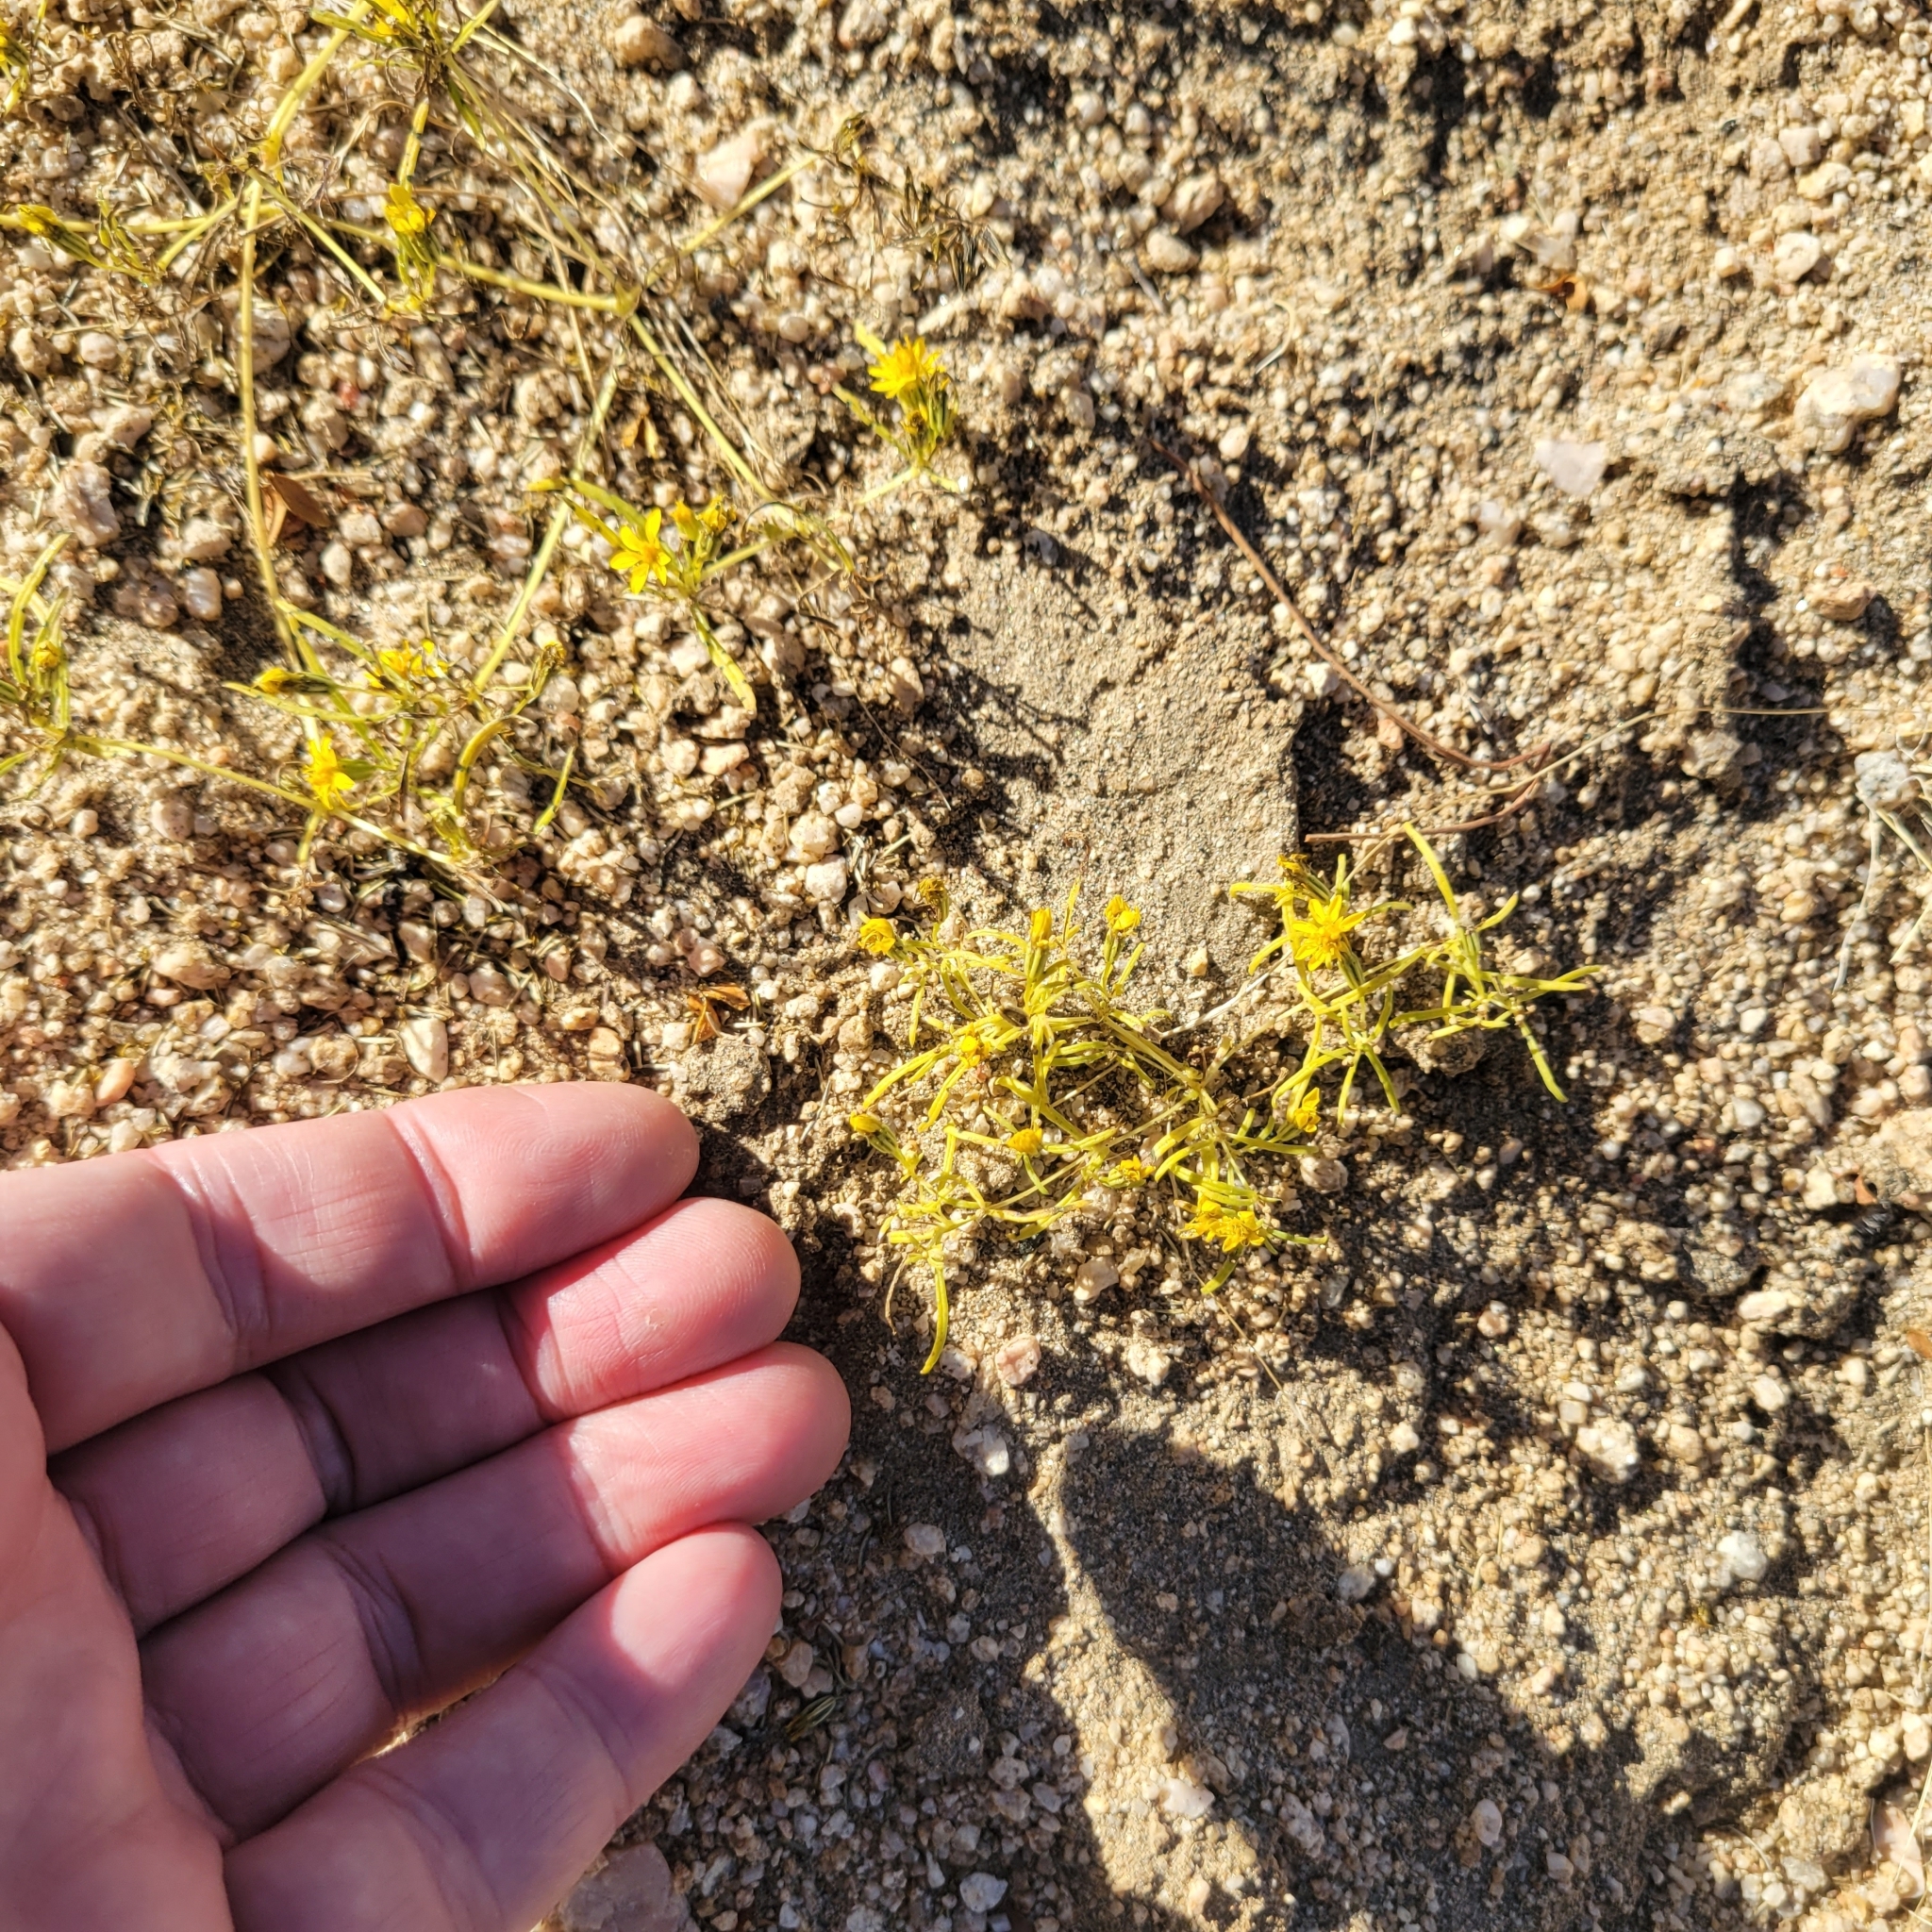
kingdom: Plantae
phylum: Tracheophyta
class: Magnoliopsida
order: Asterales
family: Asteraceae
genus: Pectis
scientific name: Pectis papposa
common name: Many-bristle chinchweed
